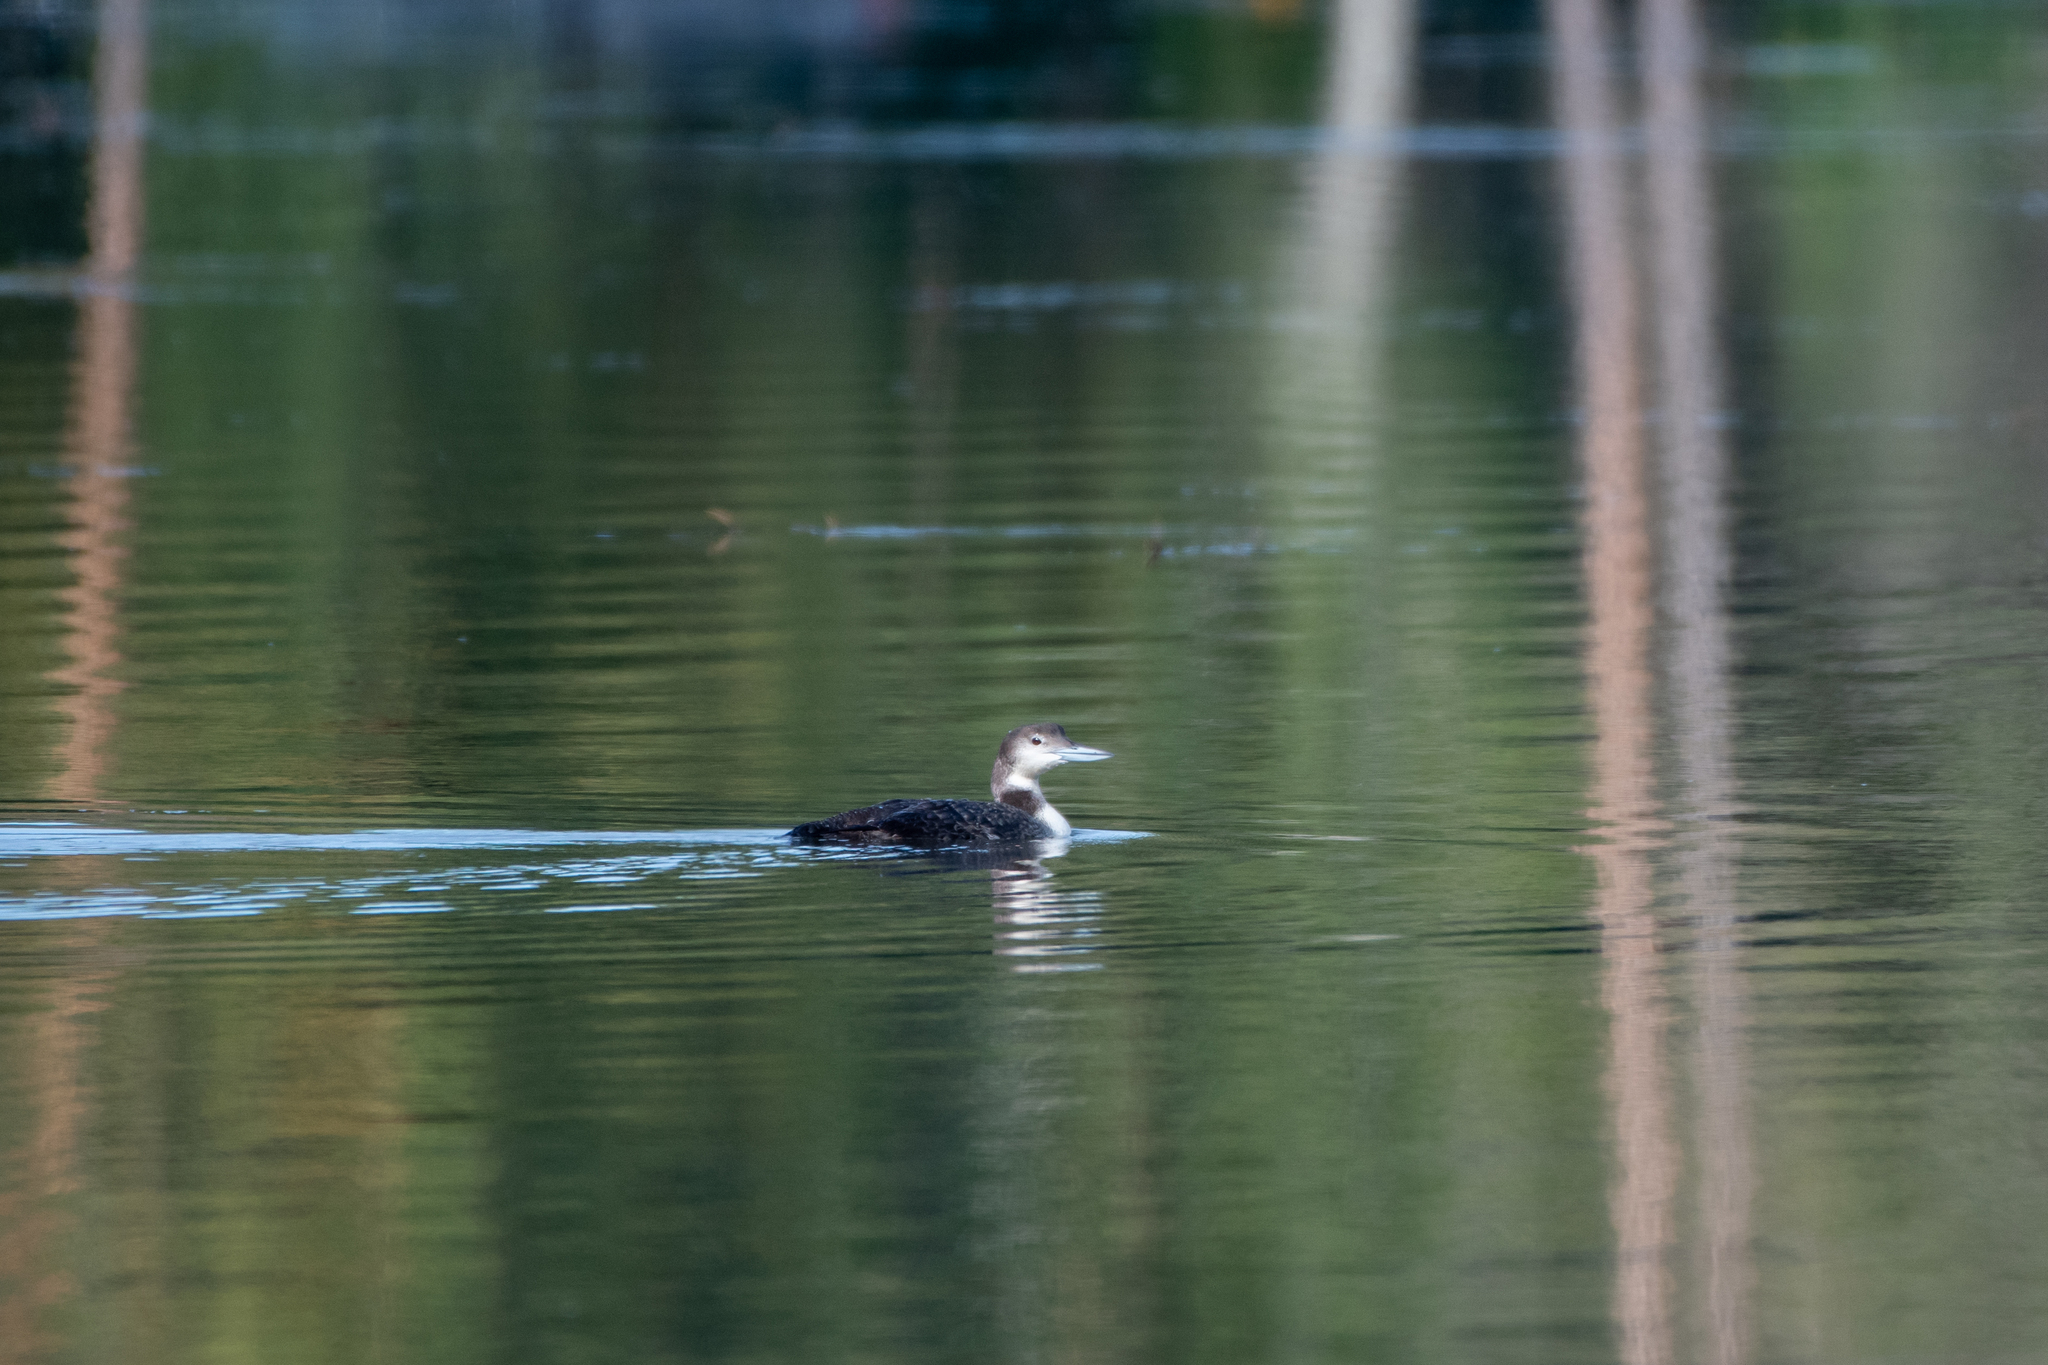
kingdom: Animalia
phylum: Chordata
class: Aves
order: Gaviiformes
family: Gaviidae
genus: Gavia
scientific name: Gavia immer
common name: Common loon
